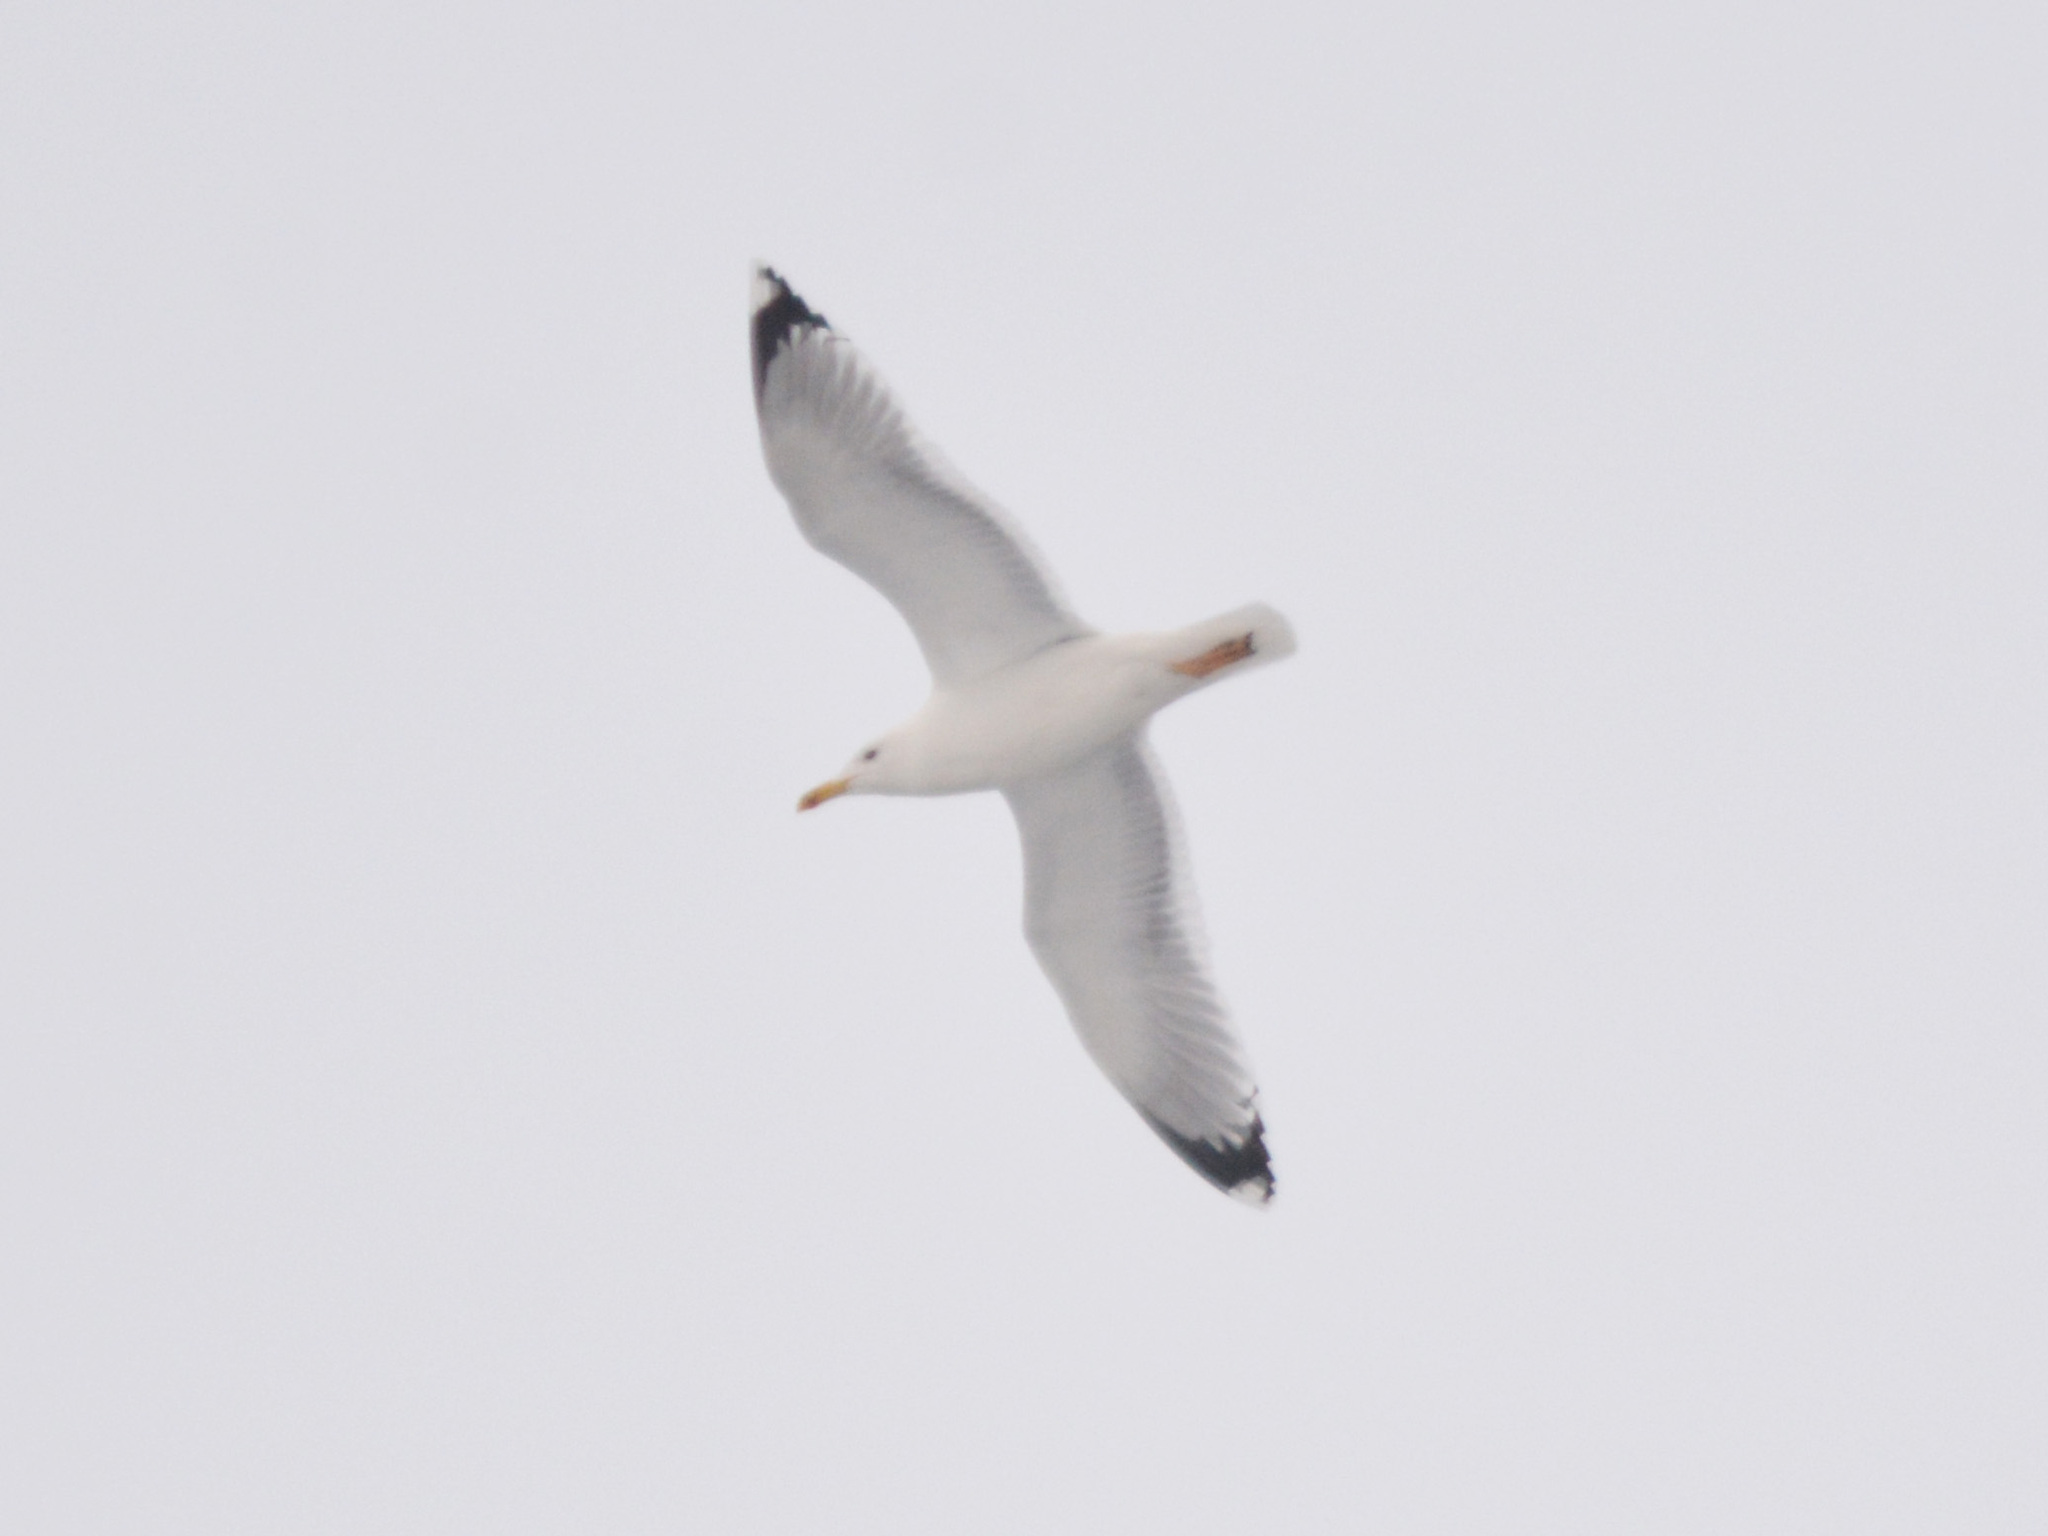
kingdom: Animalia
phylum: Chordata
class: Aves
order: Charadriiformes
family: Laridae
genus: Larus
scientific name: Larus cachinnans
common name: Caspian gull
